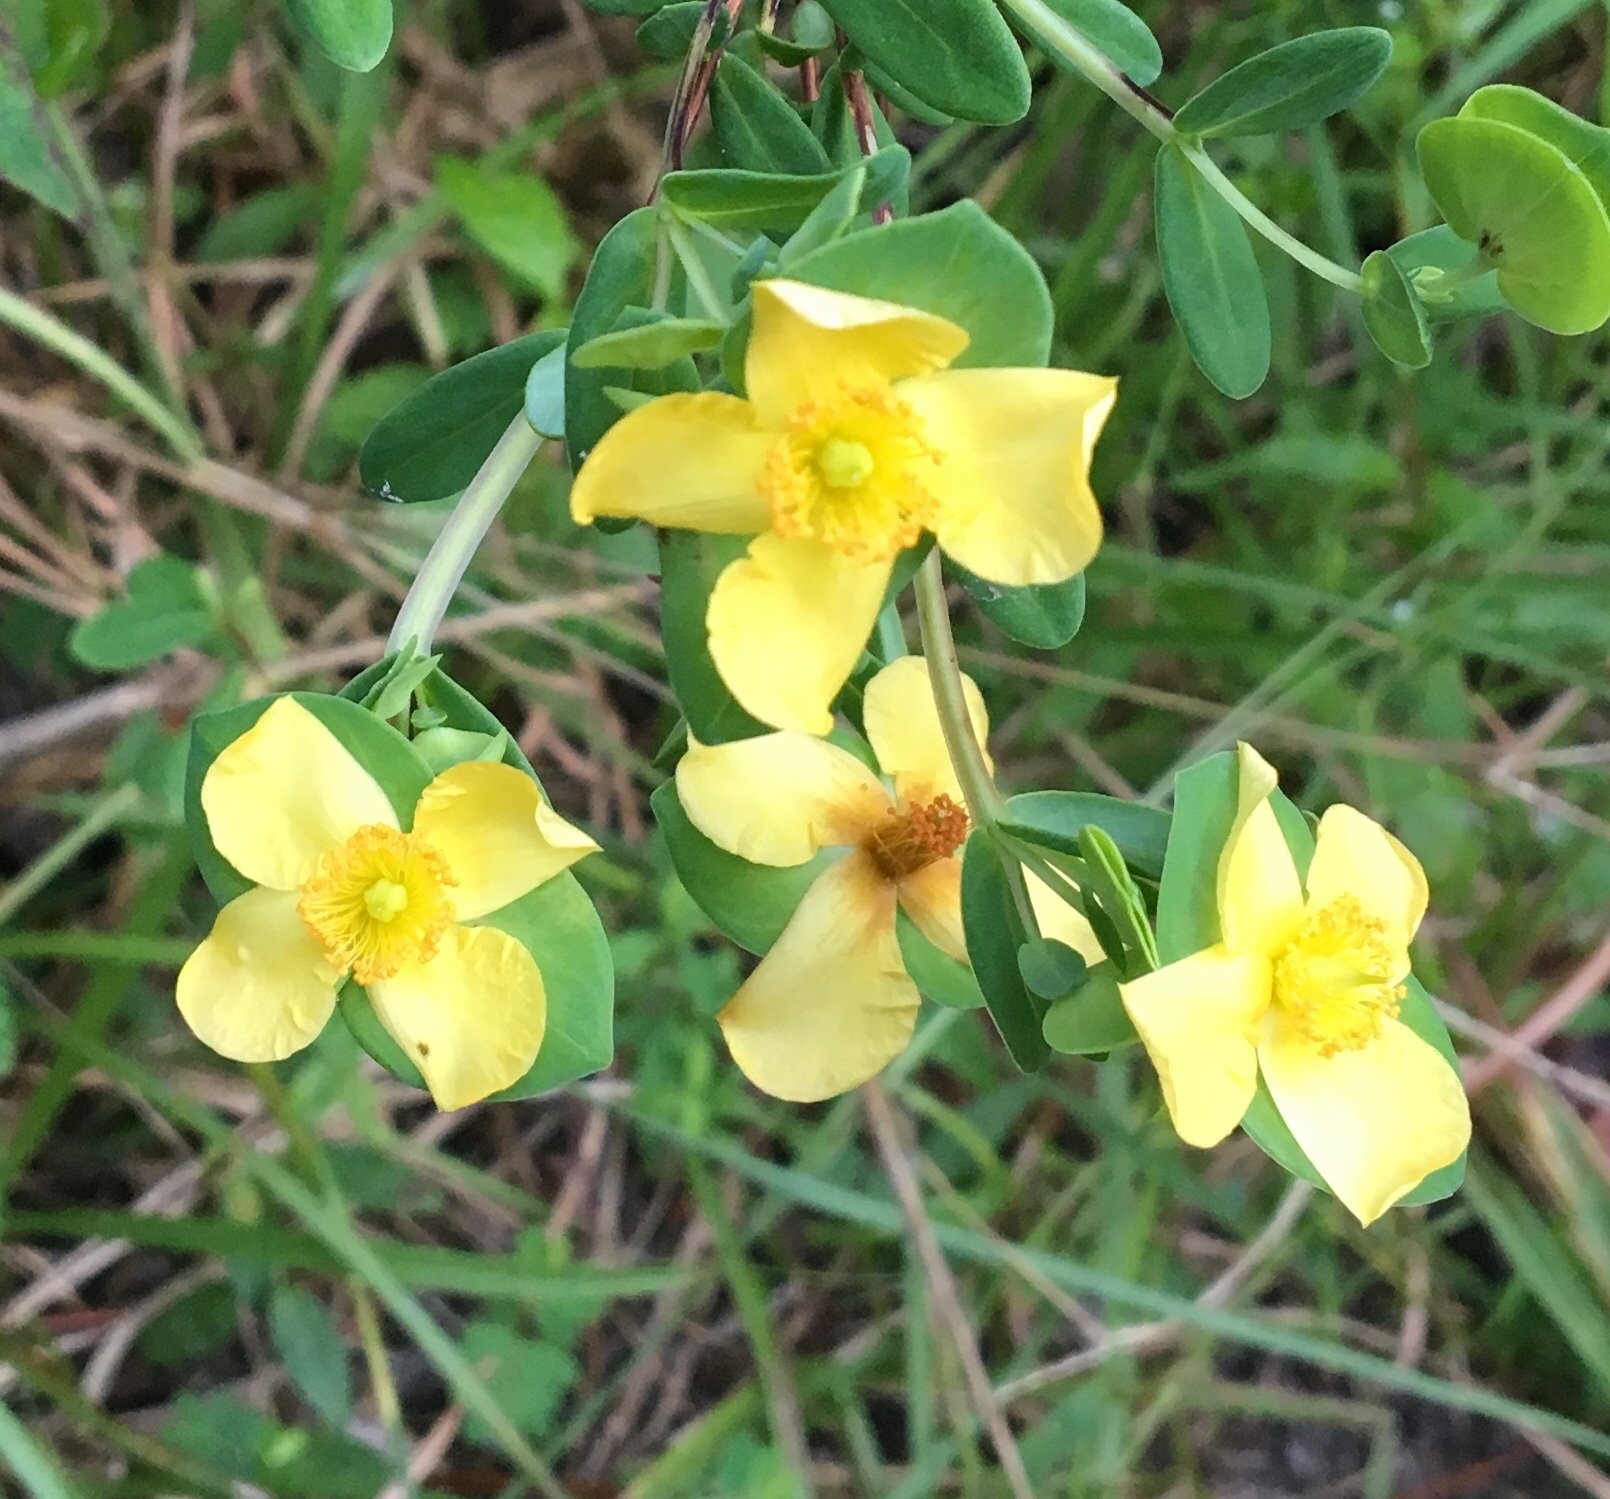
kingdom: Plantae
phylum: Tracheophyta
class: Magnoliopsida
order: Malpighiales
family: Hypericaceae
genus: Hypericum
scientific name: Hypericum crux-andreae
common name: St.-peter's-wort
